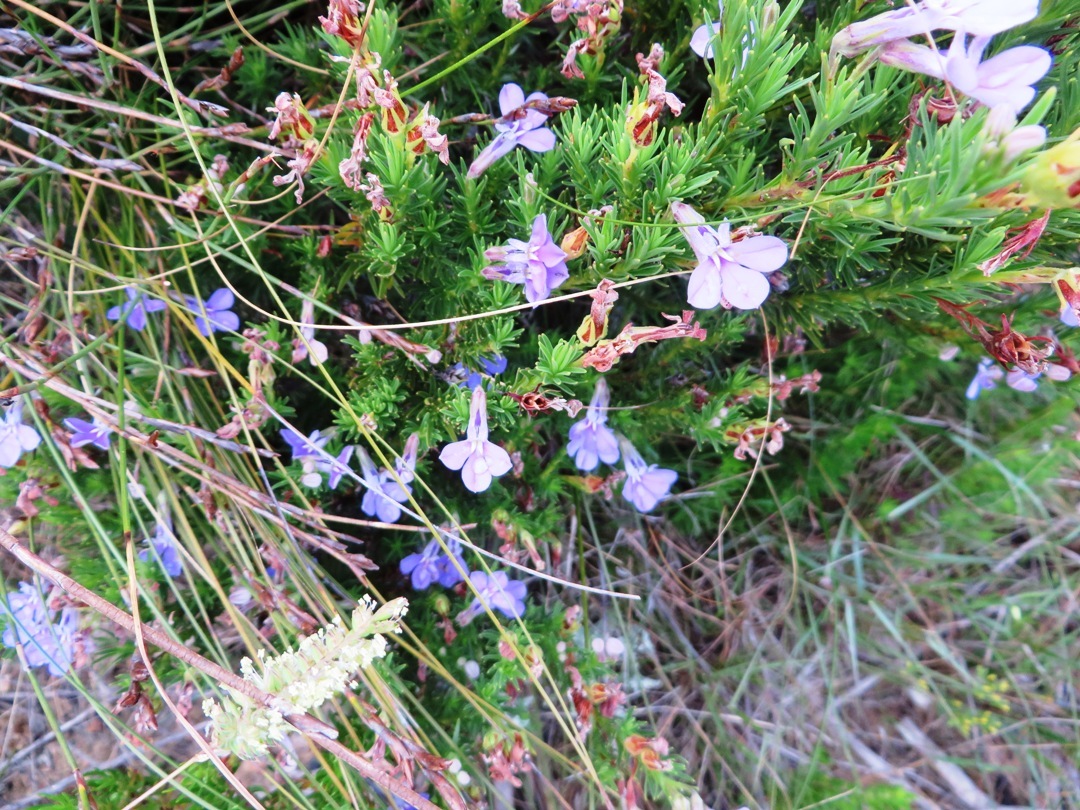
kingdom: Plantae
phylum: Tracheophyta
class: Magnoliopsida
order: Asterales
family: Campanulaceae
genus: Lobelia
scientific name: Lobelia pinifolia
